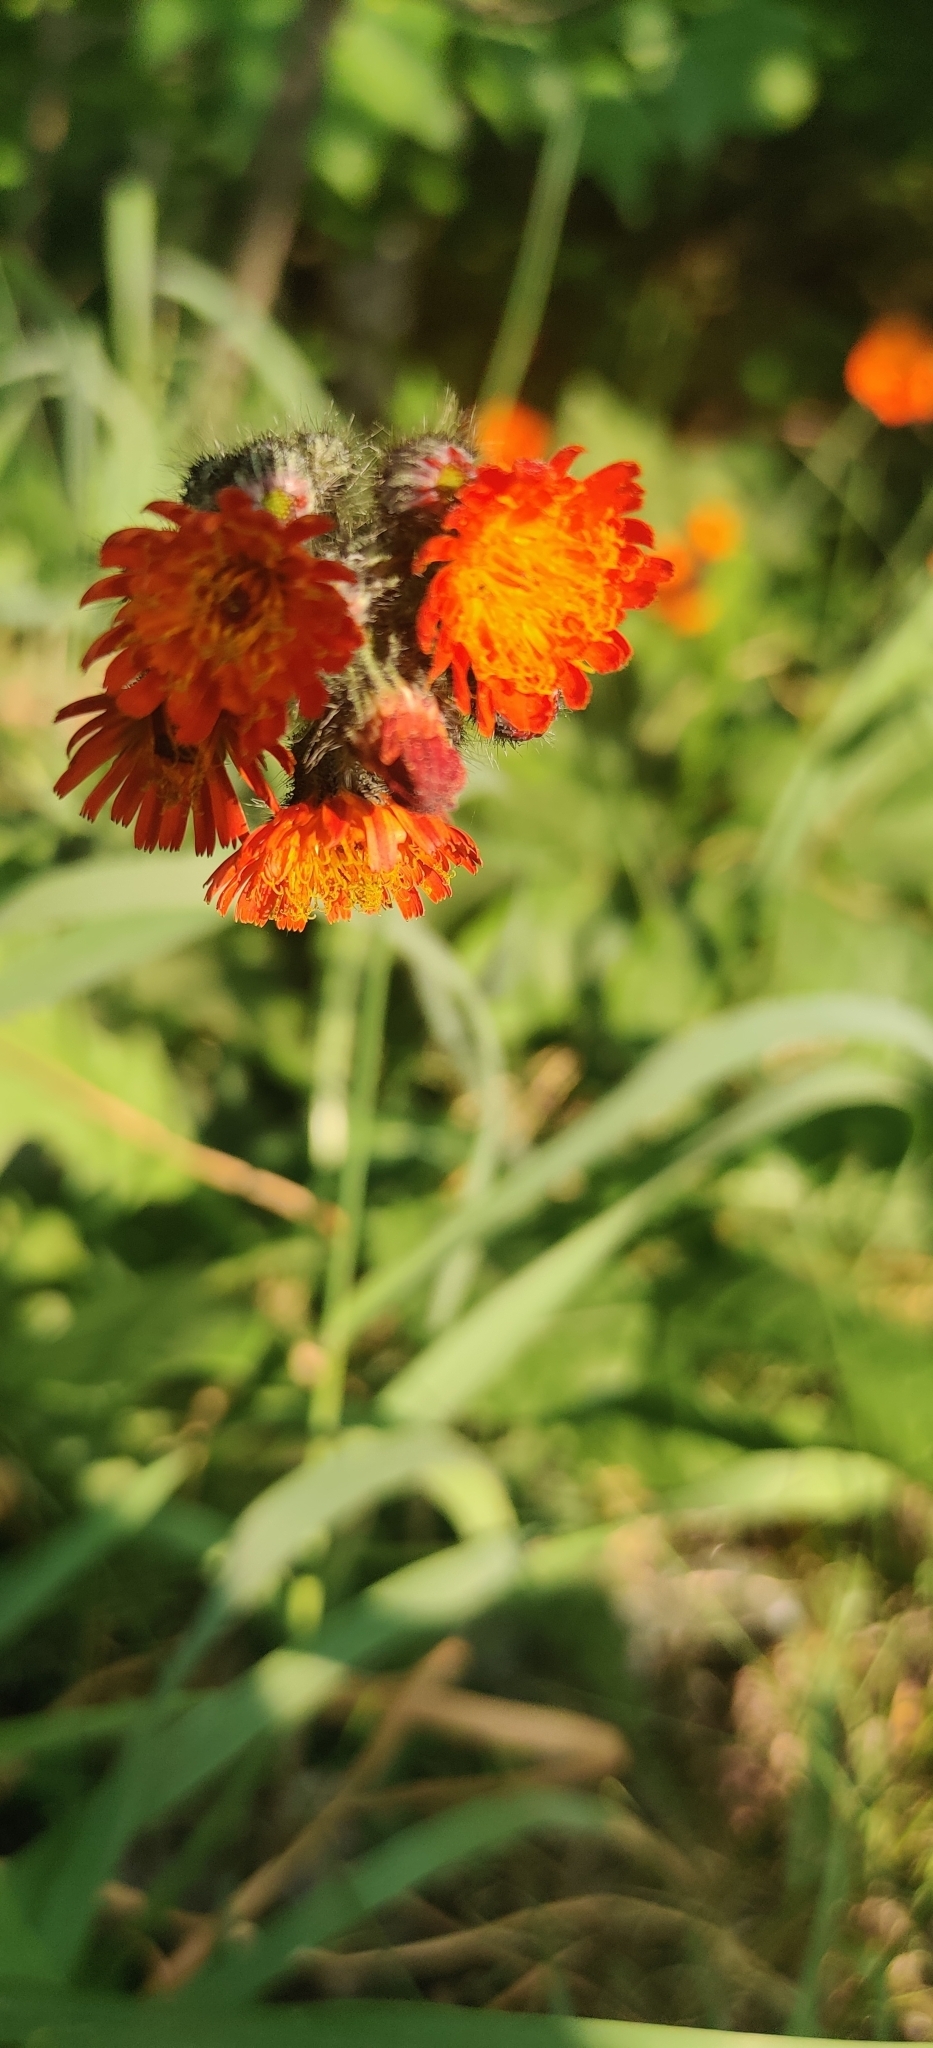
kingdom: Plantae
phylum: Tracheophyta
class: Magnoliopsida
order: Asterales
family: Asteraceae
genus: Pilosella
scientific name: Pilosella aurantiaca
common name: Fox-and-cubs
